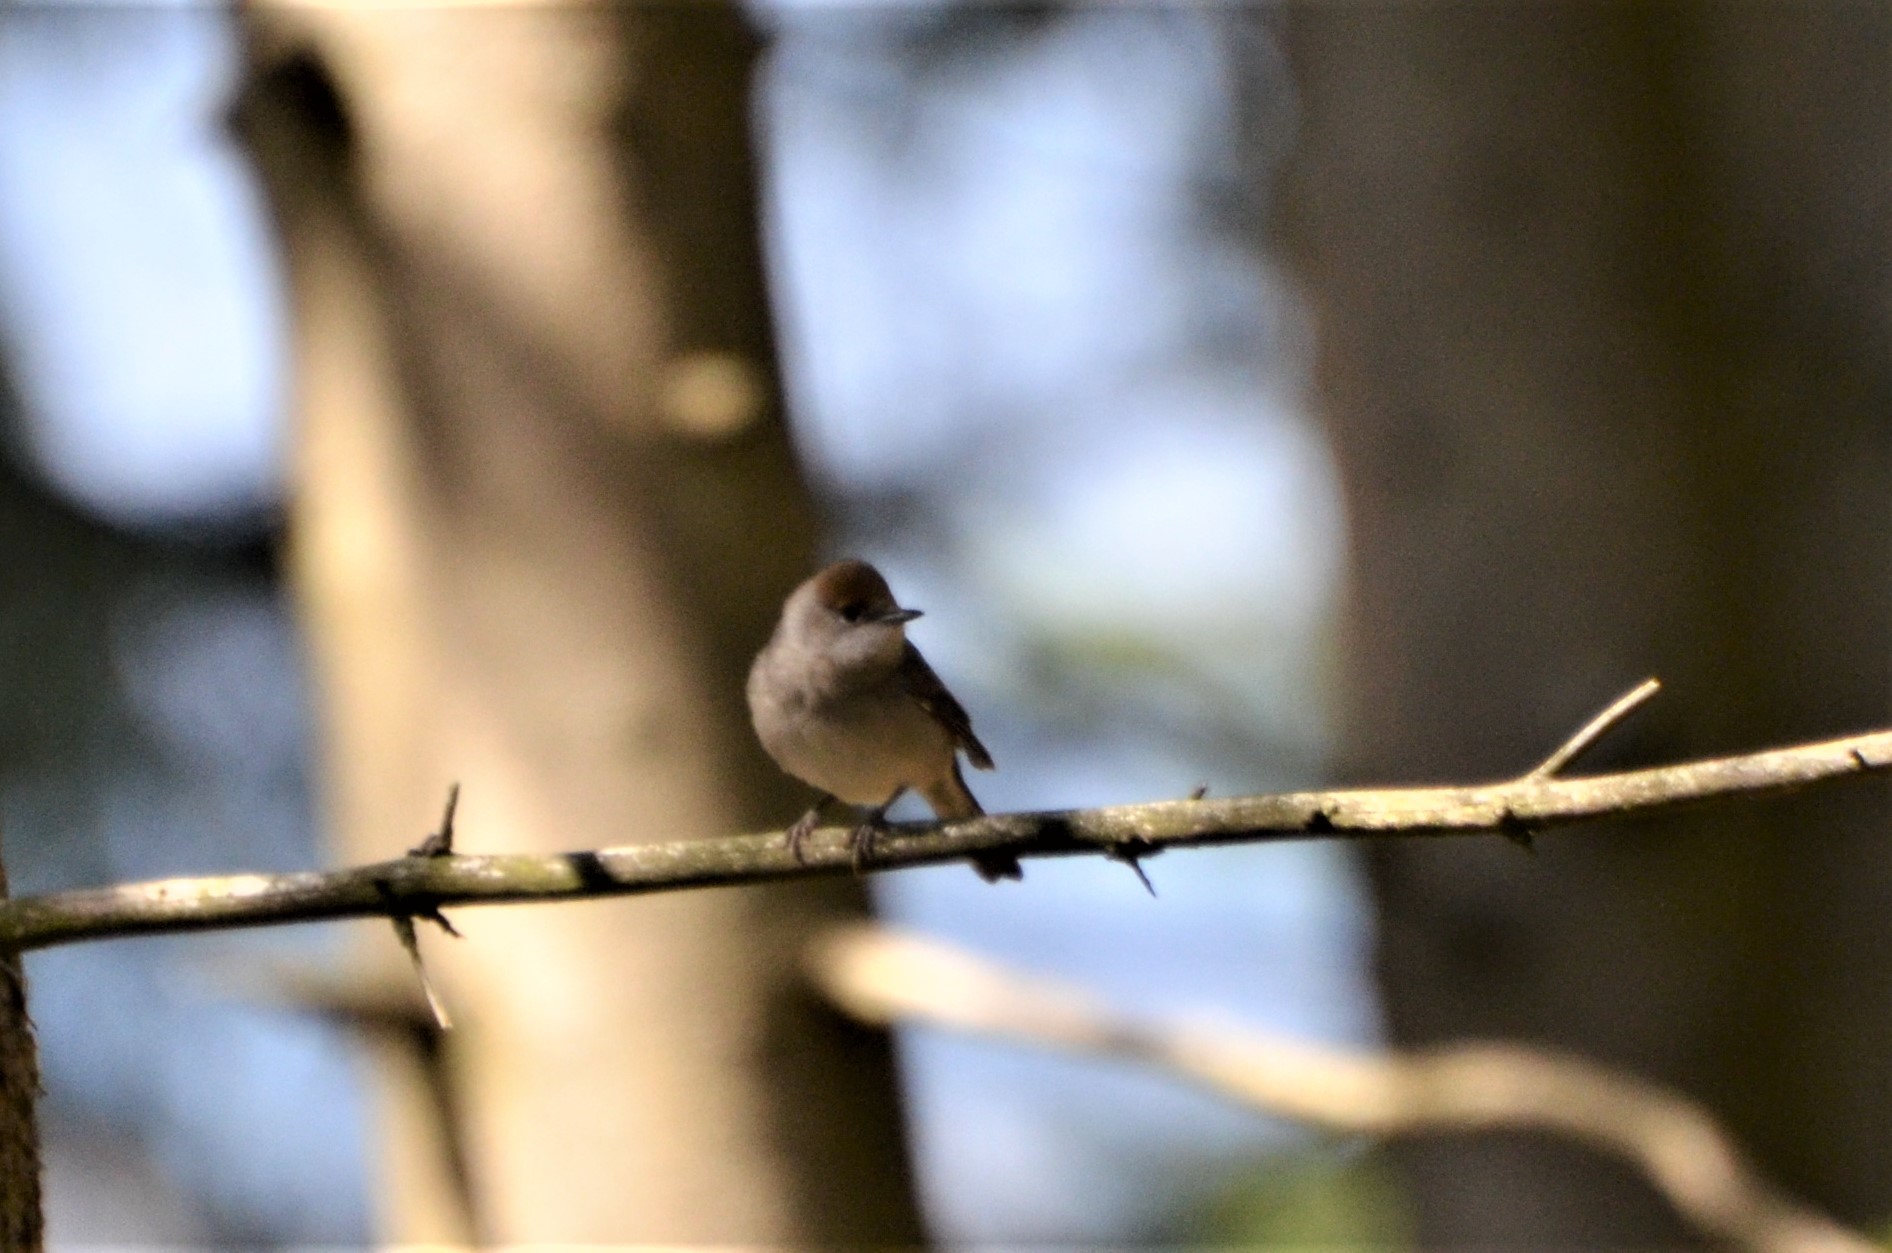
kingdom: Animalia
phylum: Chordata
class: Aves
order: Passeriformes
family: Sylviidae
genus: Sylvia
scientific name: Sylvia atricapilla
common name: Eurasian blackcap
